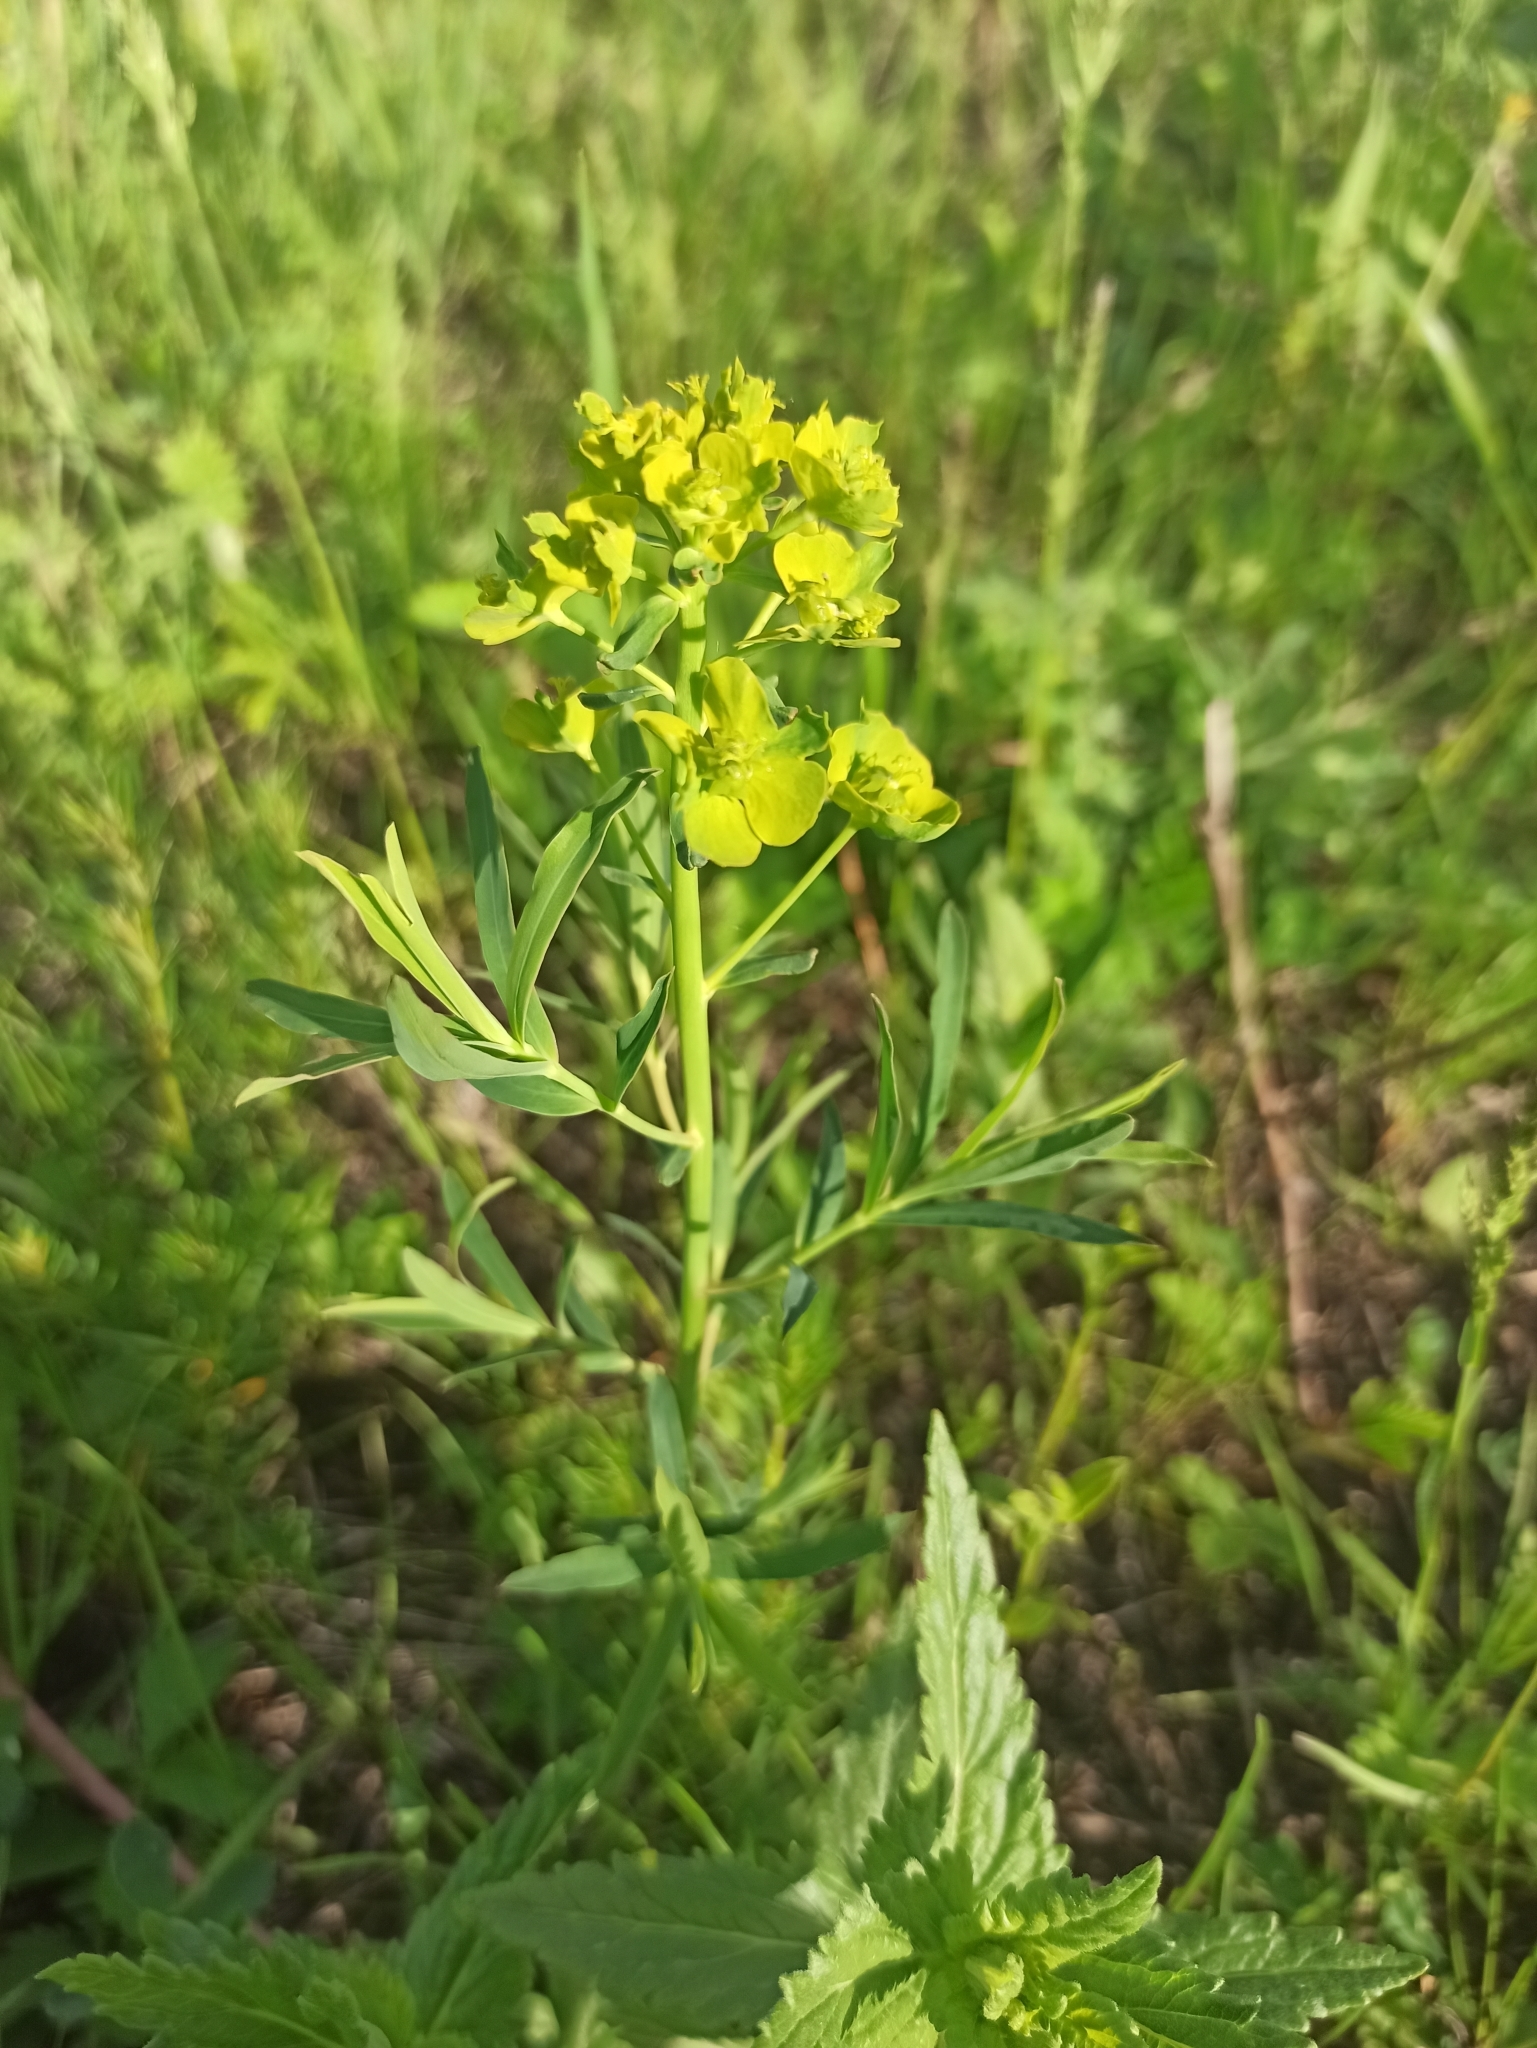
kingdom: Plantae
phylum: Tracheophyta
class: Magnoliopsida
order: Malpighiales
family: Euphorbiaceae
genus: Euphorbia
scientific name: Euphorbia virgata
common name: Leafy spurge
